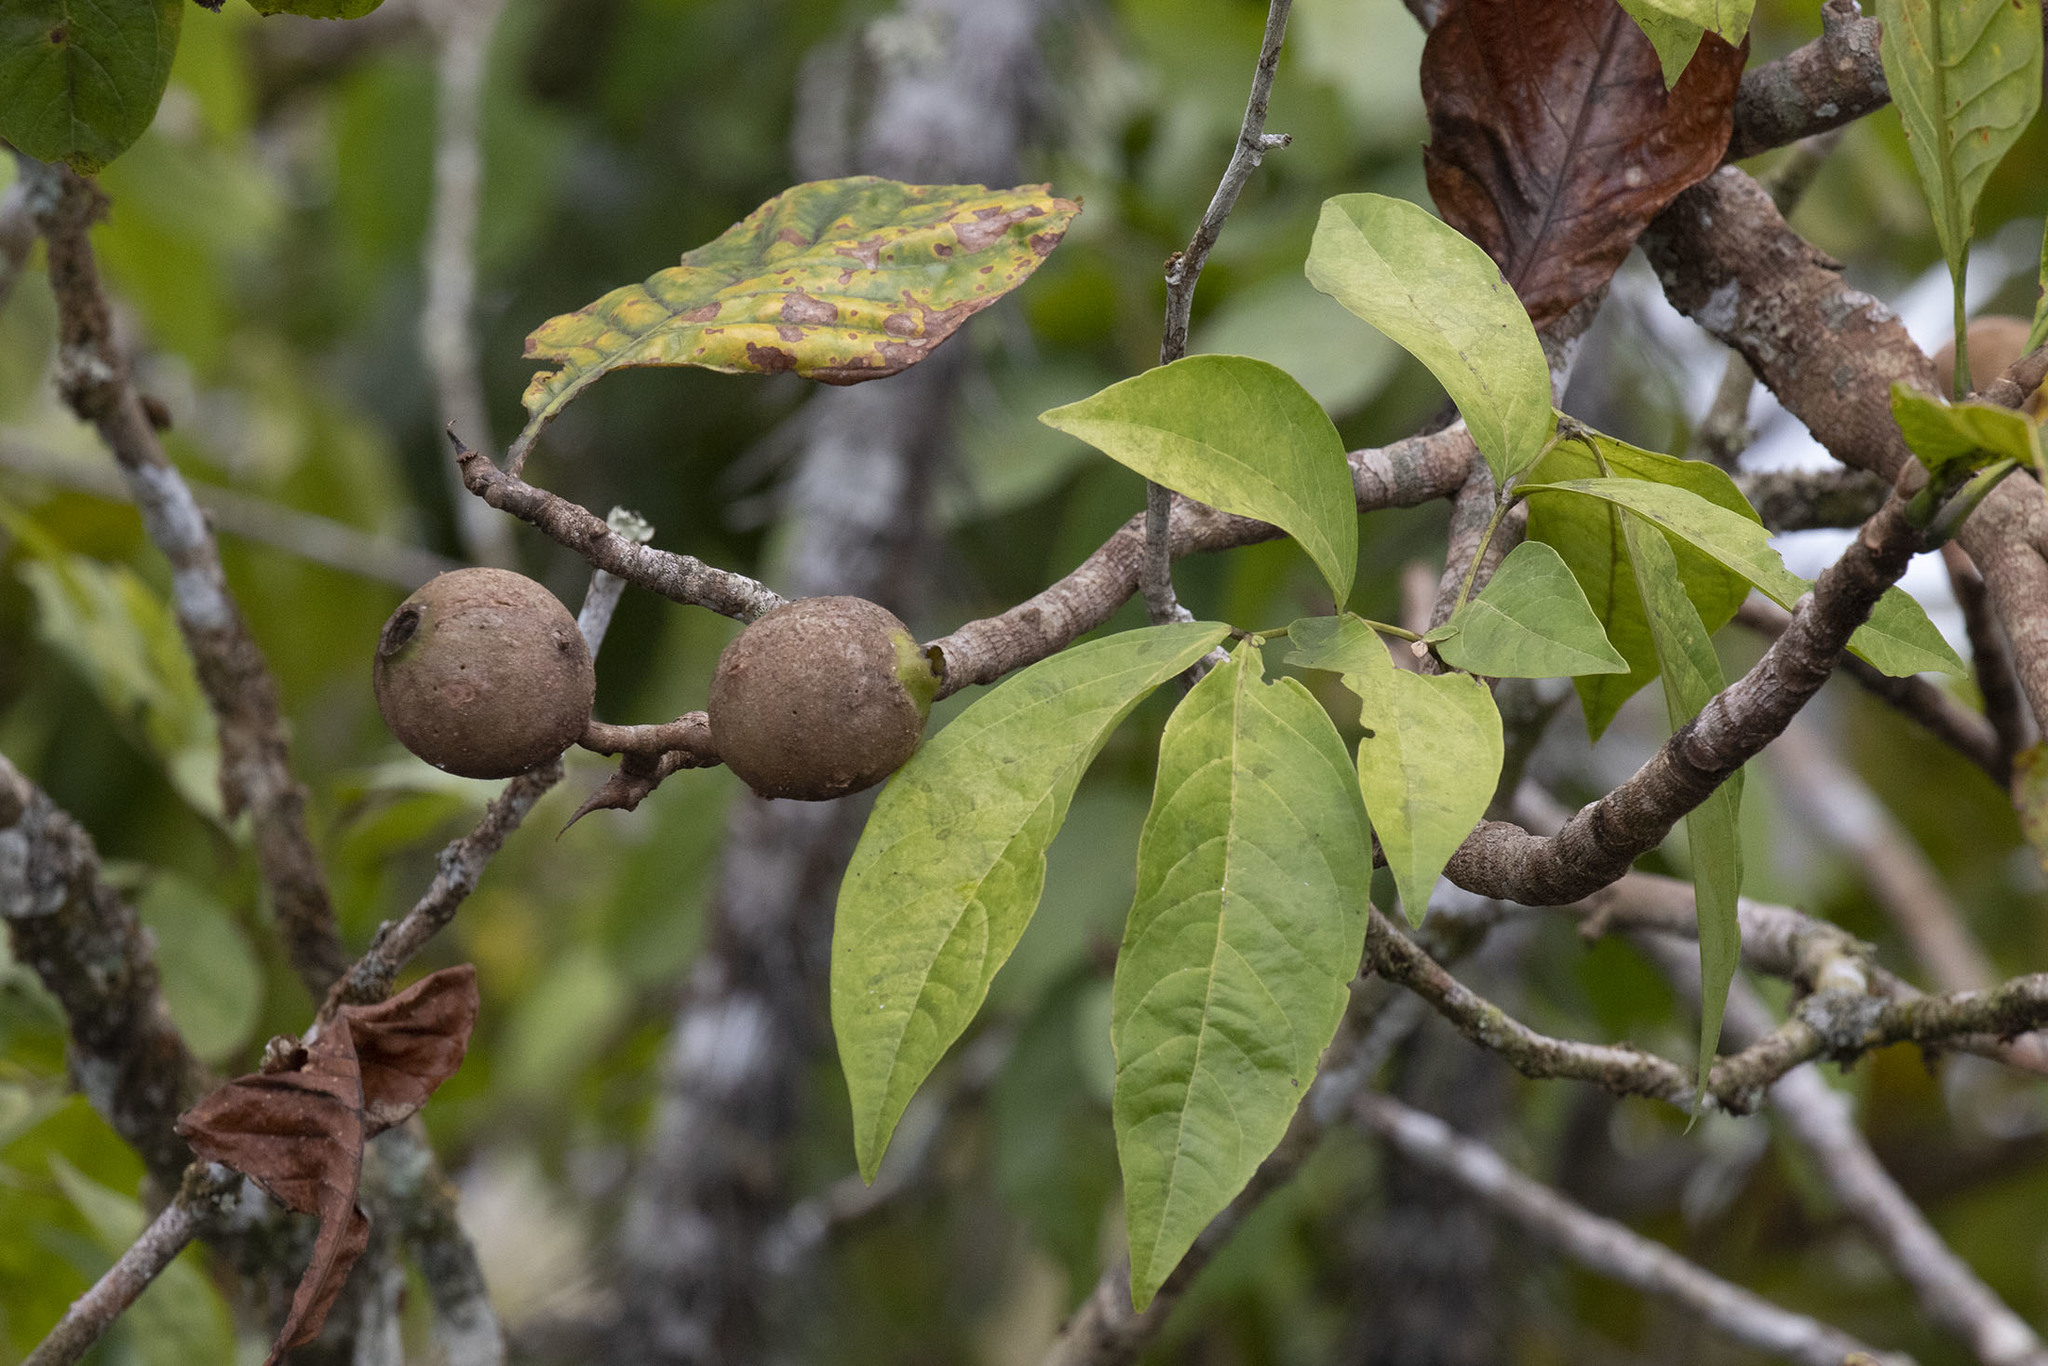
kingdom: Plantae
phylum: Tracheophyta
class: Magnoliopsida
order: Gentianales
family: Rubiaceae
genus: Genipa
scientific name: Genipa americana
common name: Genipap
